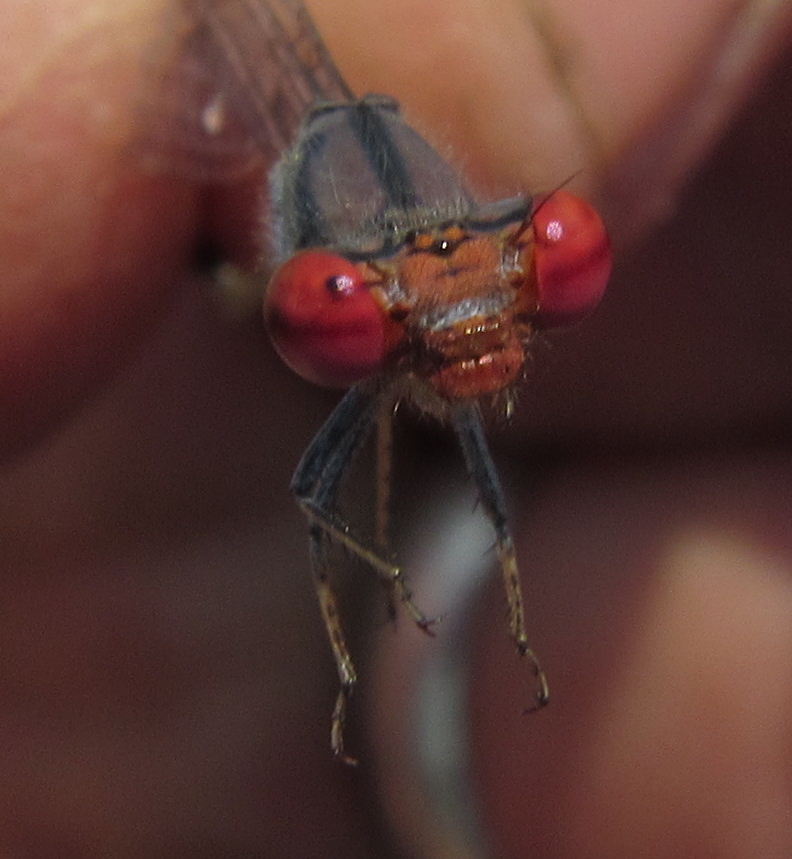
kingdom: Animalia
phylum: Arthropoda
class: Insecta
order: Odonata
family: Coenagrionidae
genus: Pseudagrion
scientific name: Pseudagrion sublacteum
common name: Cherry-eye sprite
